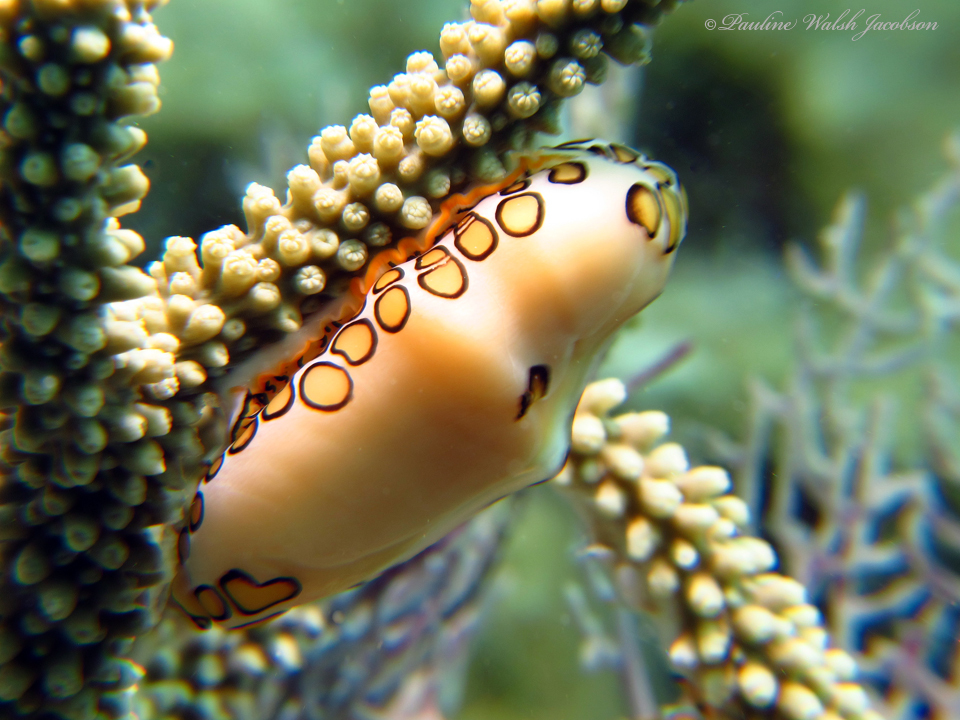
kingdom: Animalia
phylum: Mollusca
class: Gastropoda
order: Littorinimorpha
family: Ovulidae
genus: Cyphoma
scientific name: Cyphoma gibbosum
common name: Flamingo tongue
